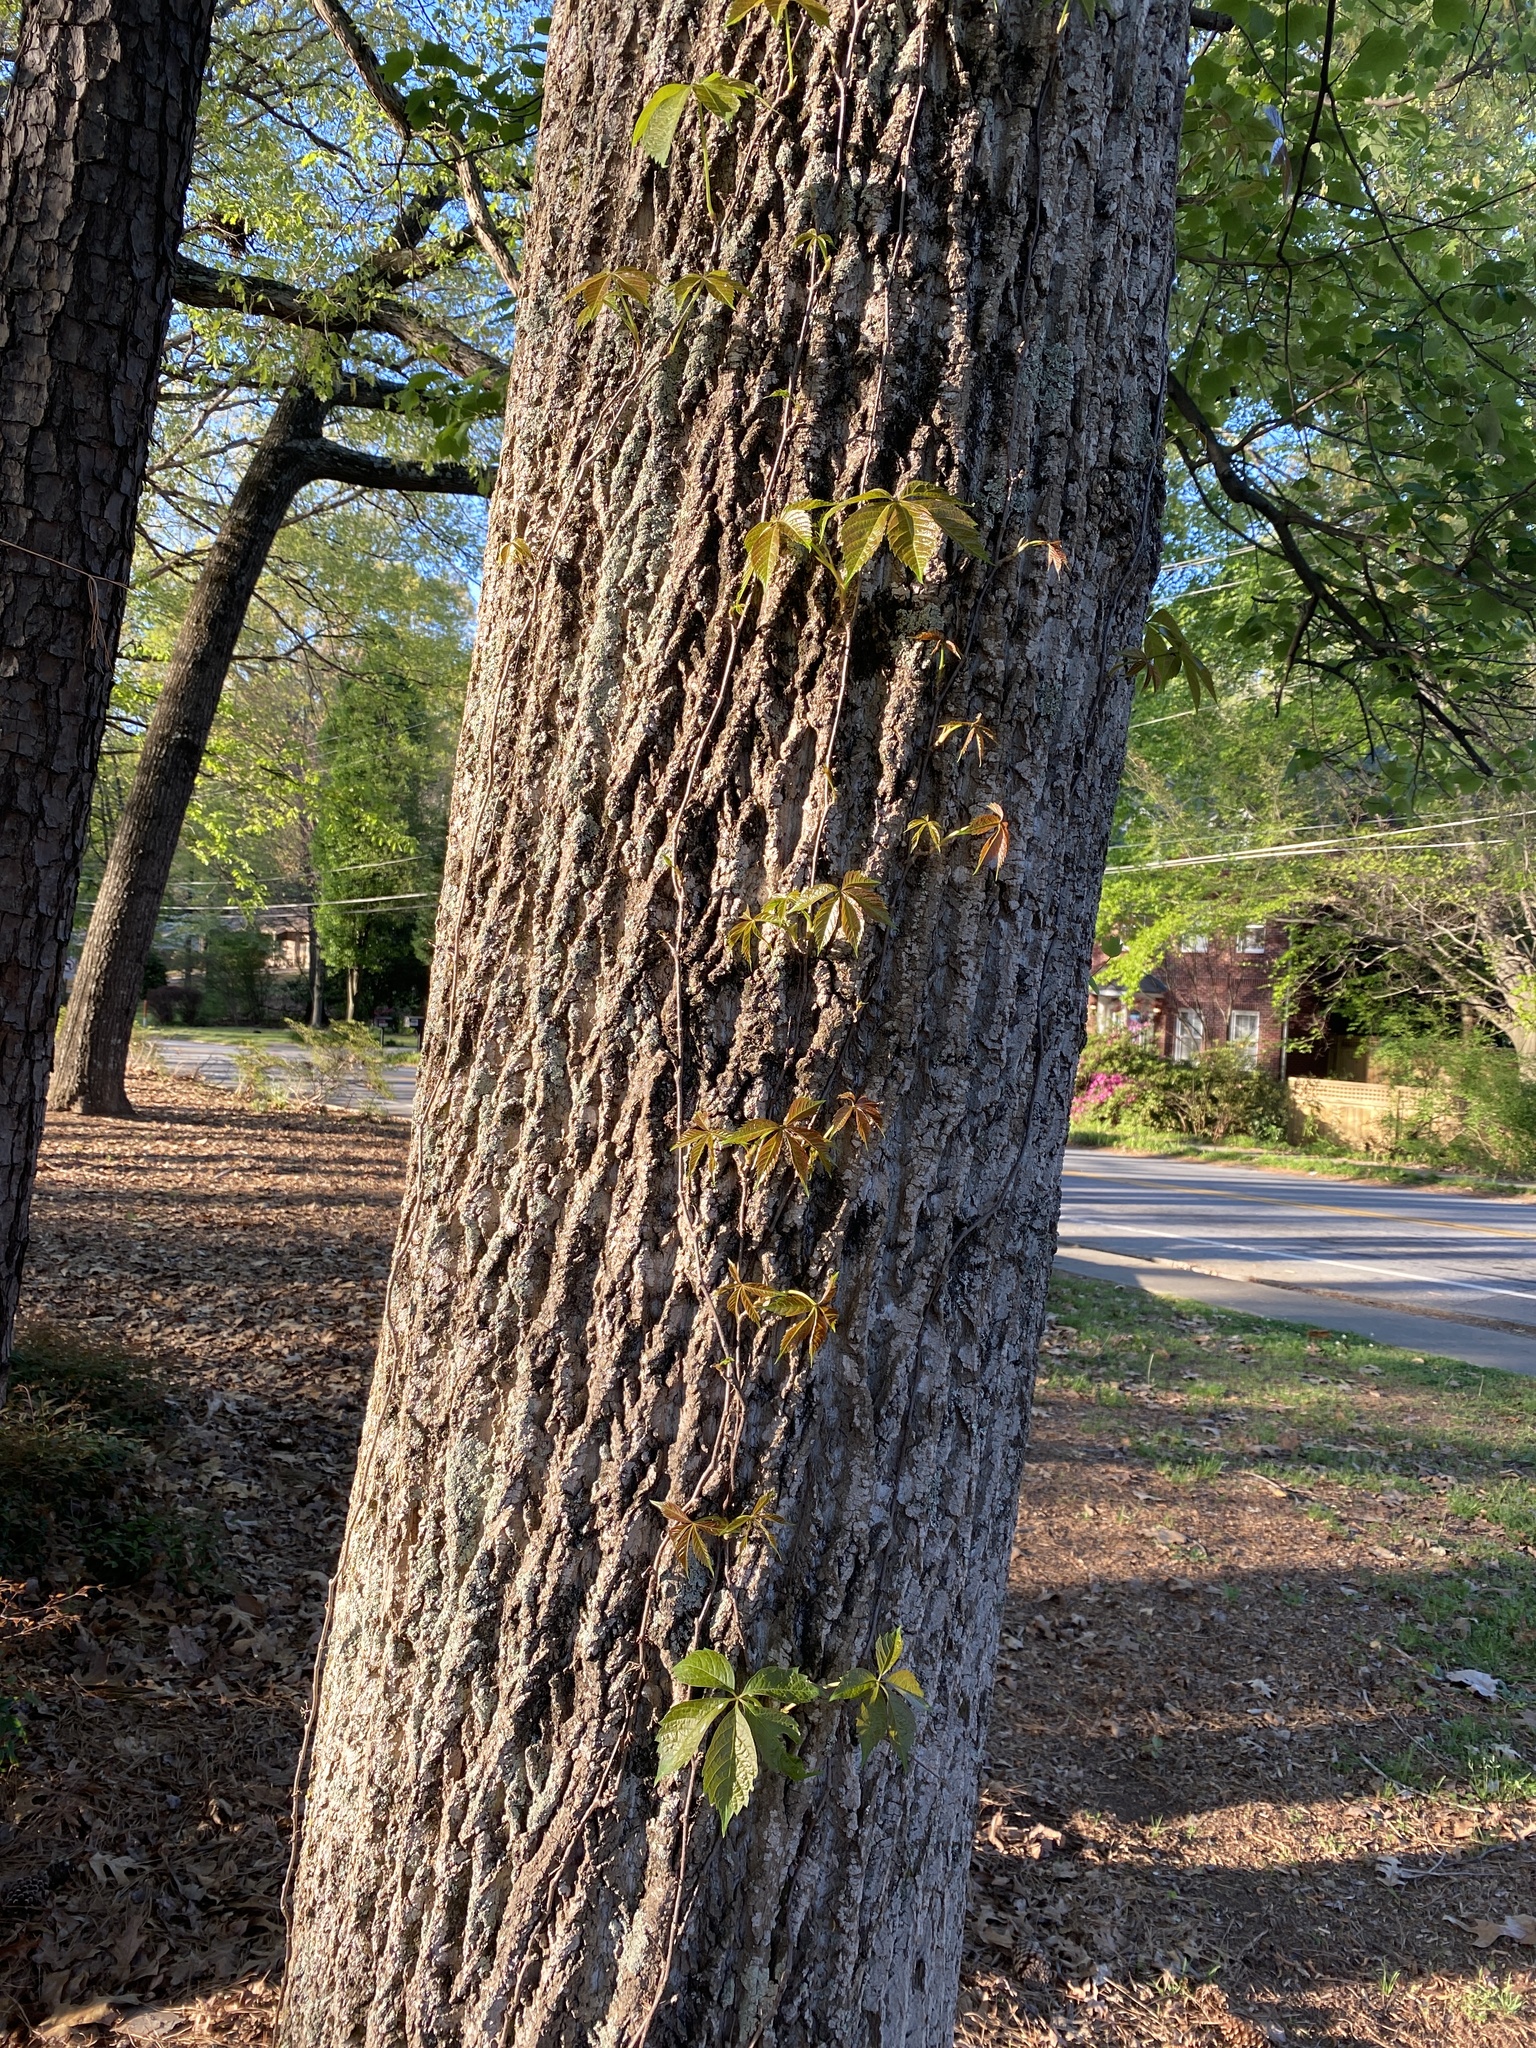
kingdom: Plantae
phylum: Tracheophyta
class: Magnoliopsida
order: Vitales
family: Vitaceae
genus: Parthenocissus
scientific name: Parthenocissus quinquefolia
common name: Virginia-creeper
